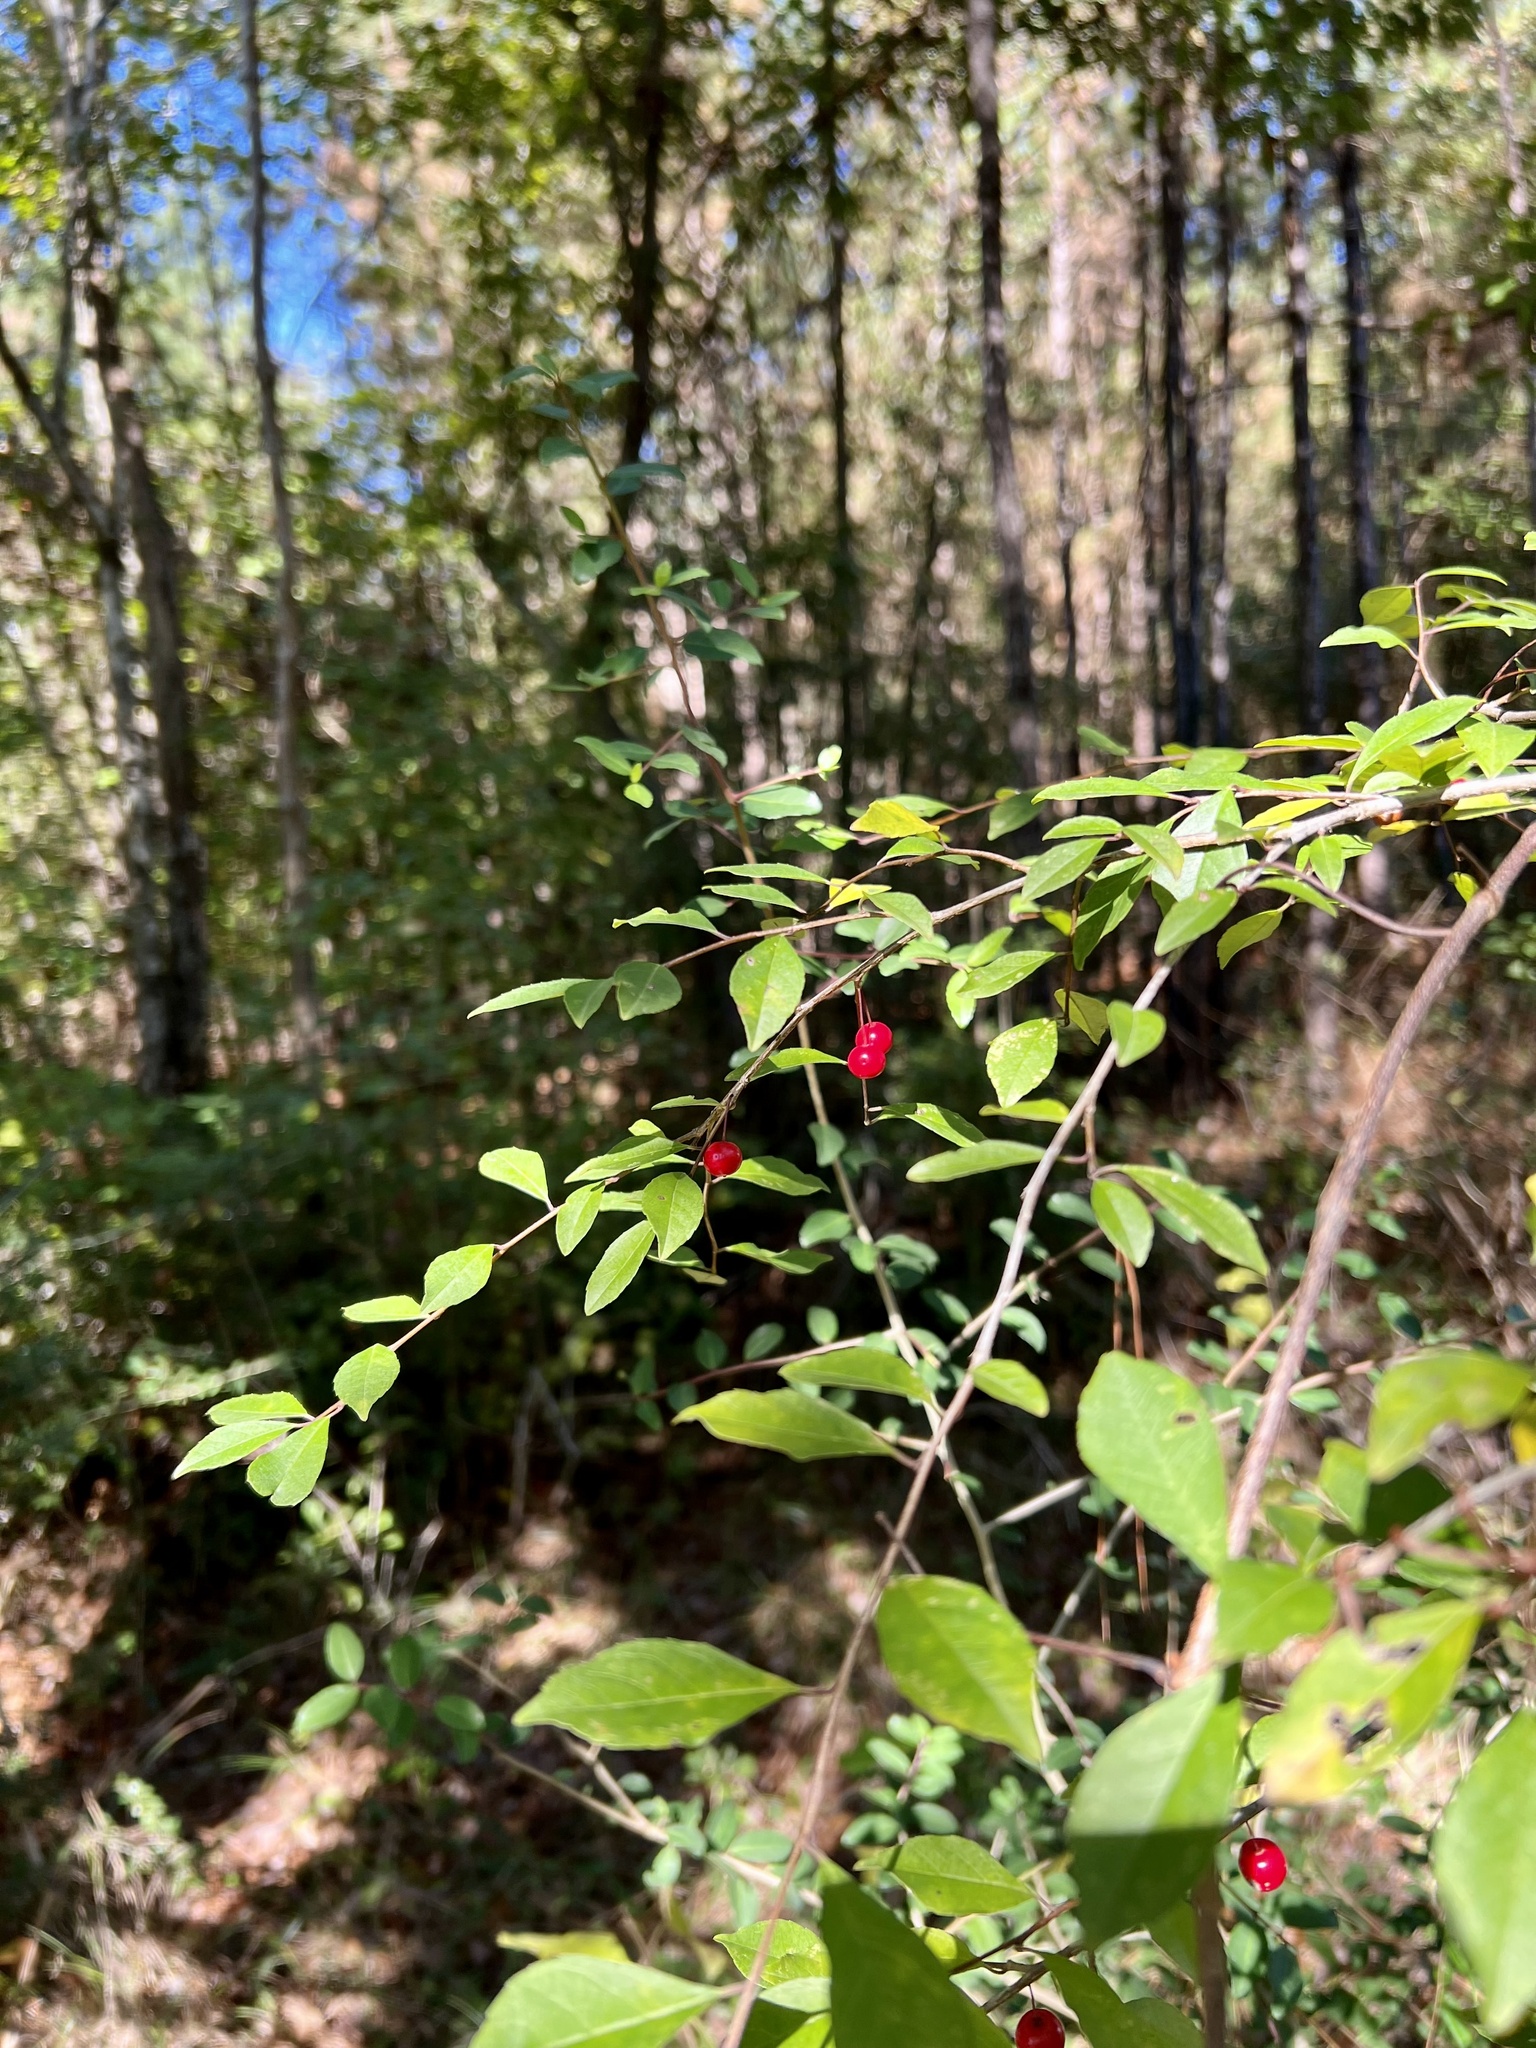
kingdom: Plantae
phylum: Tracheophyta
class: Magnoliopsida
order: Aquifoliales
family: Aquifoliaceae
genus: Ilex
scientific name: Ilex longipes
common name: Georgia holly
